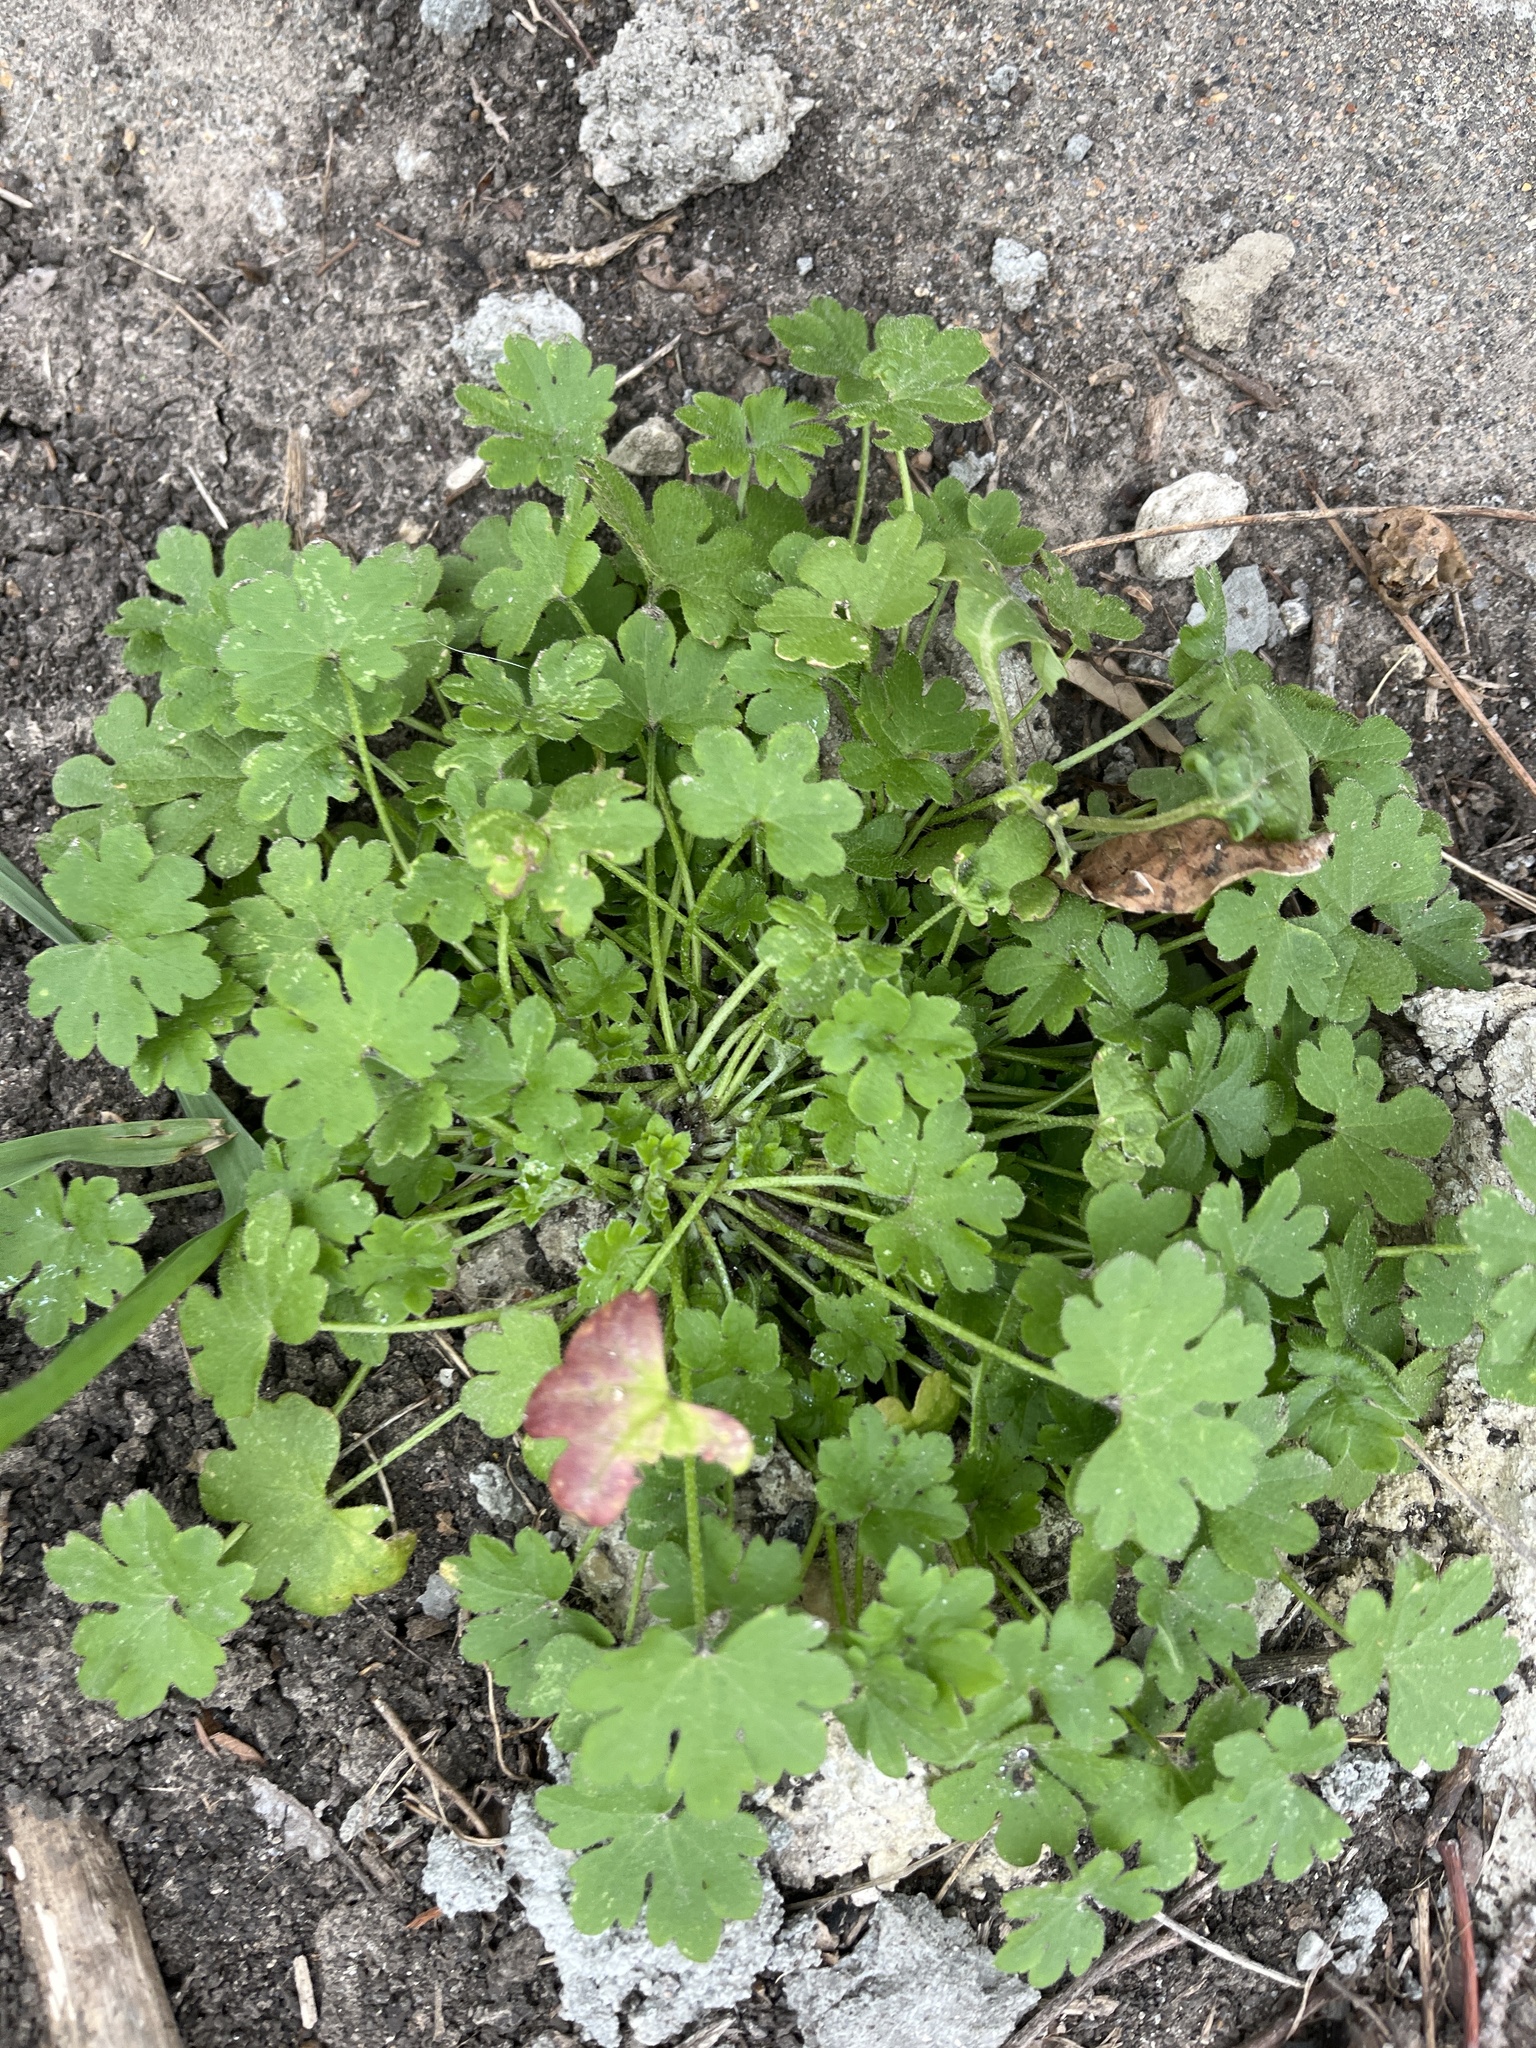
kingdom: Plantae
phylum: Tracheophyta
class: Magnoliopsida
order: Apiales
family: Apiaceae
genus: Bowlesia
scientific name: Bowlesia incana
